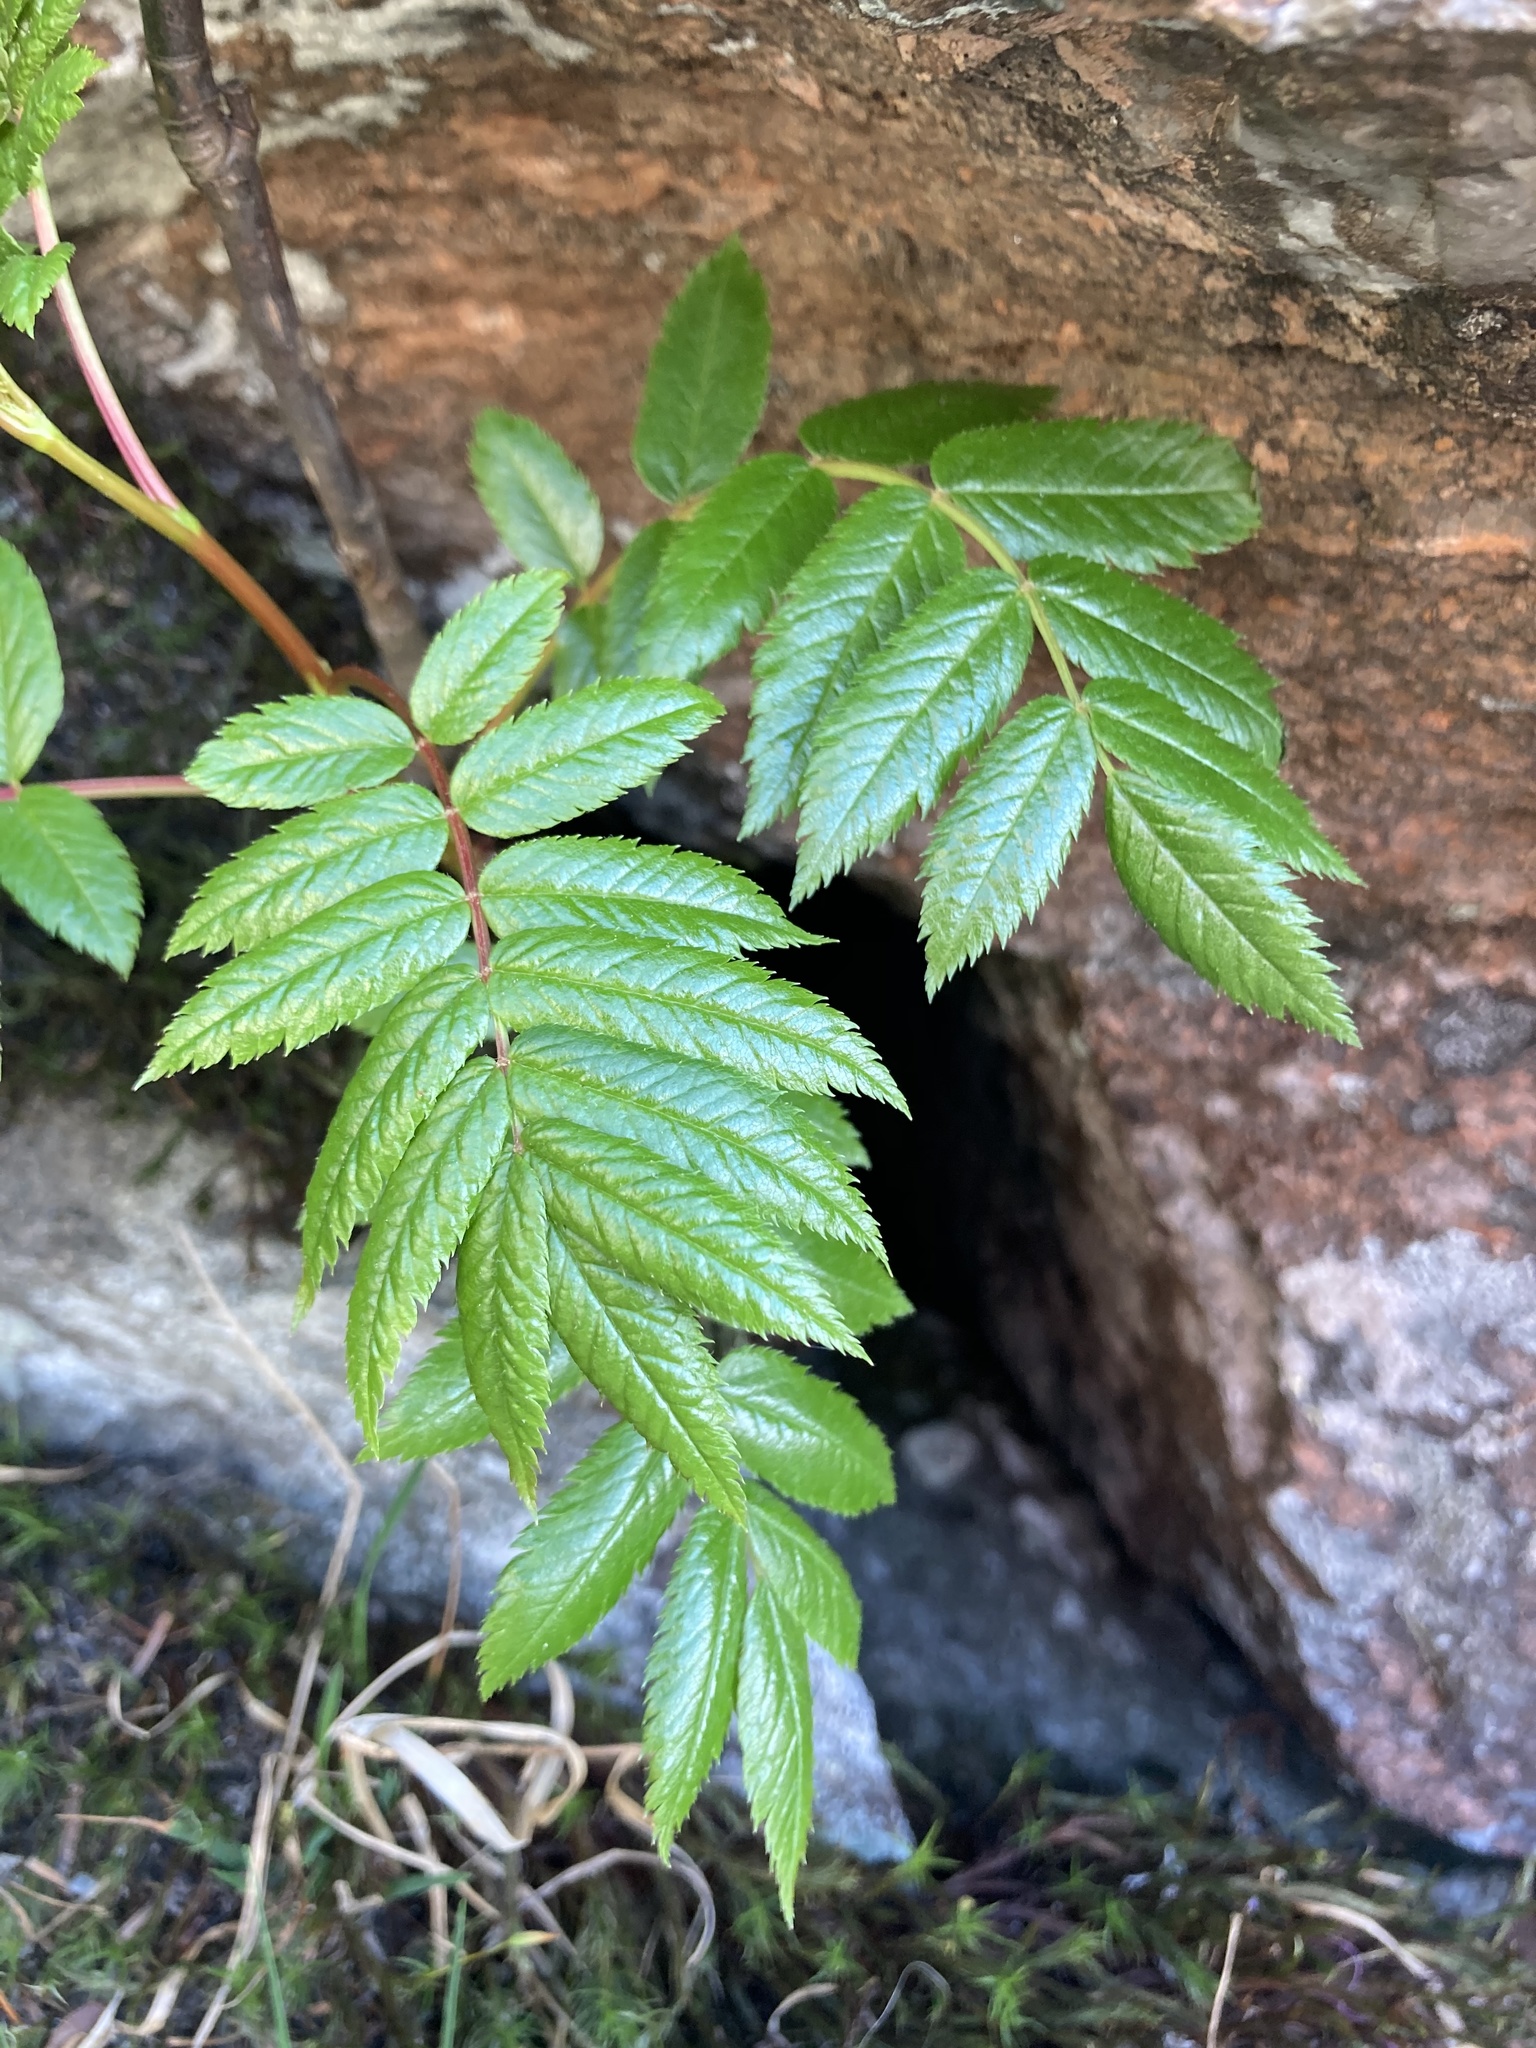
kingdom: Plantae
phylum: Tracheophyta
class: Magnoliopsida
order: Rosales
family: Rosaceae
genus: Sorbus
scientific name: Sorbus americana
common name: American mountain-ash
